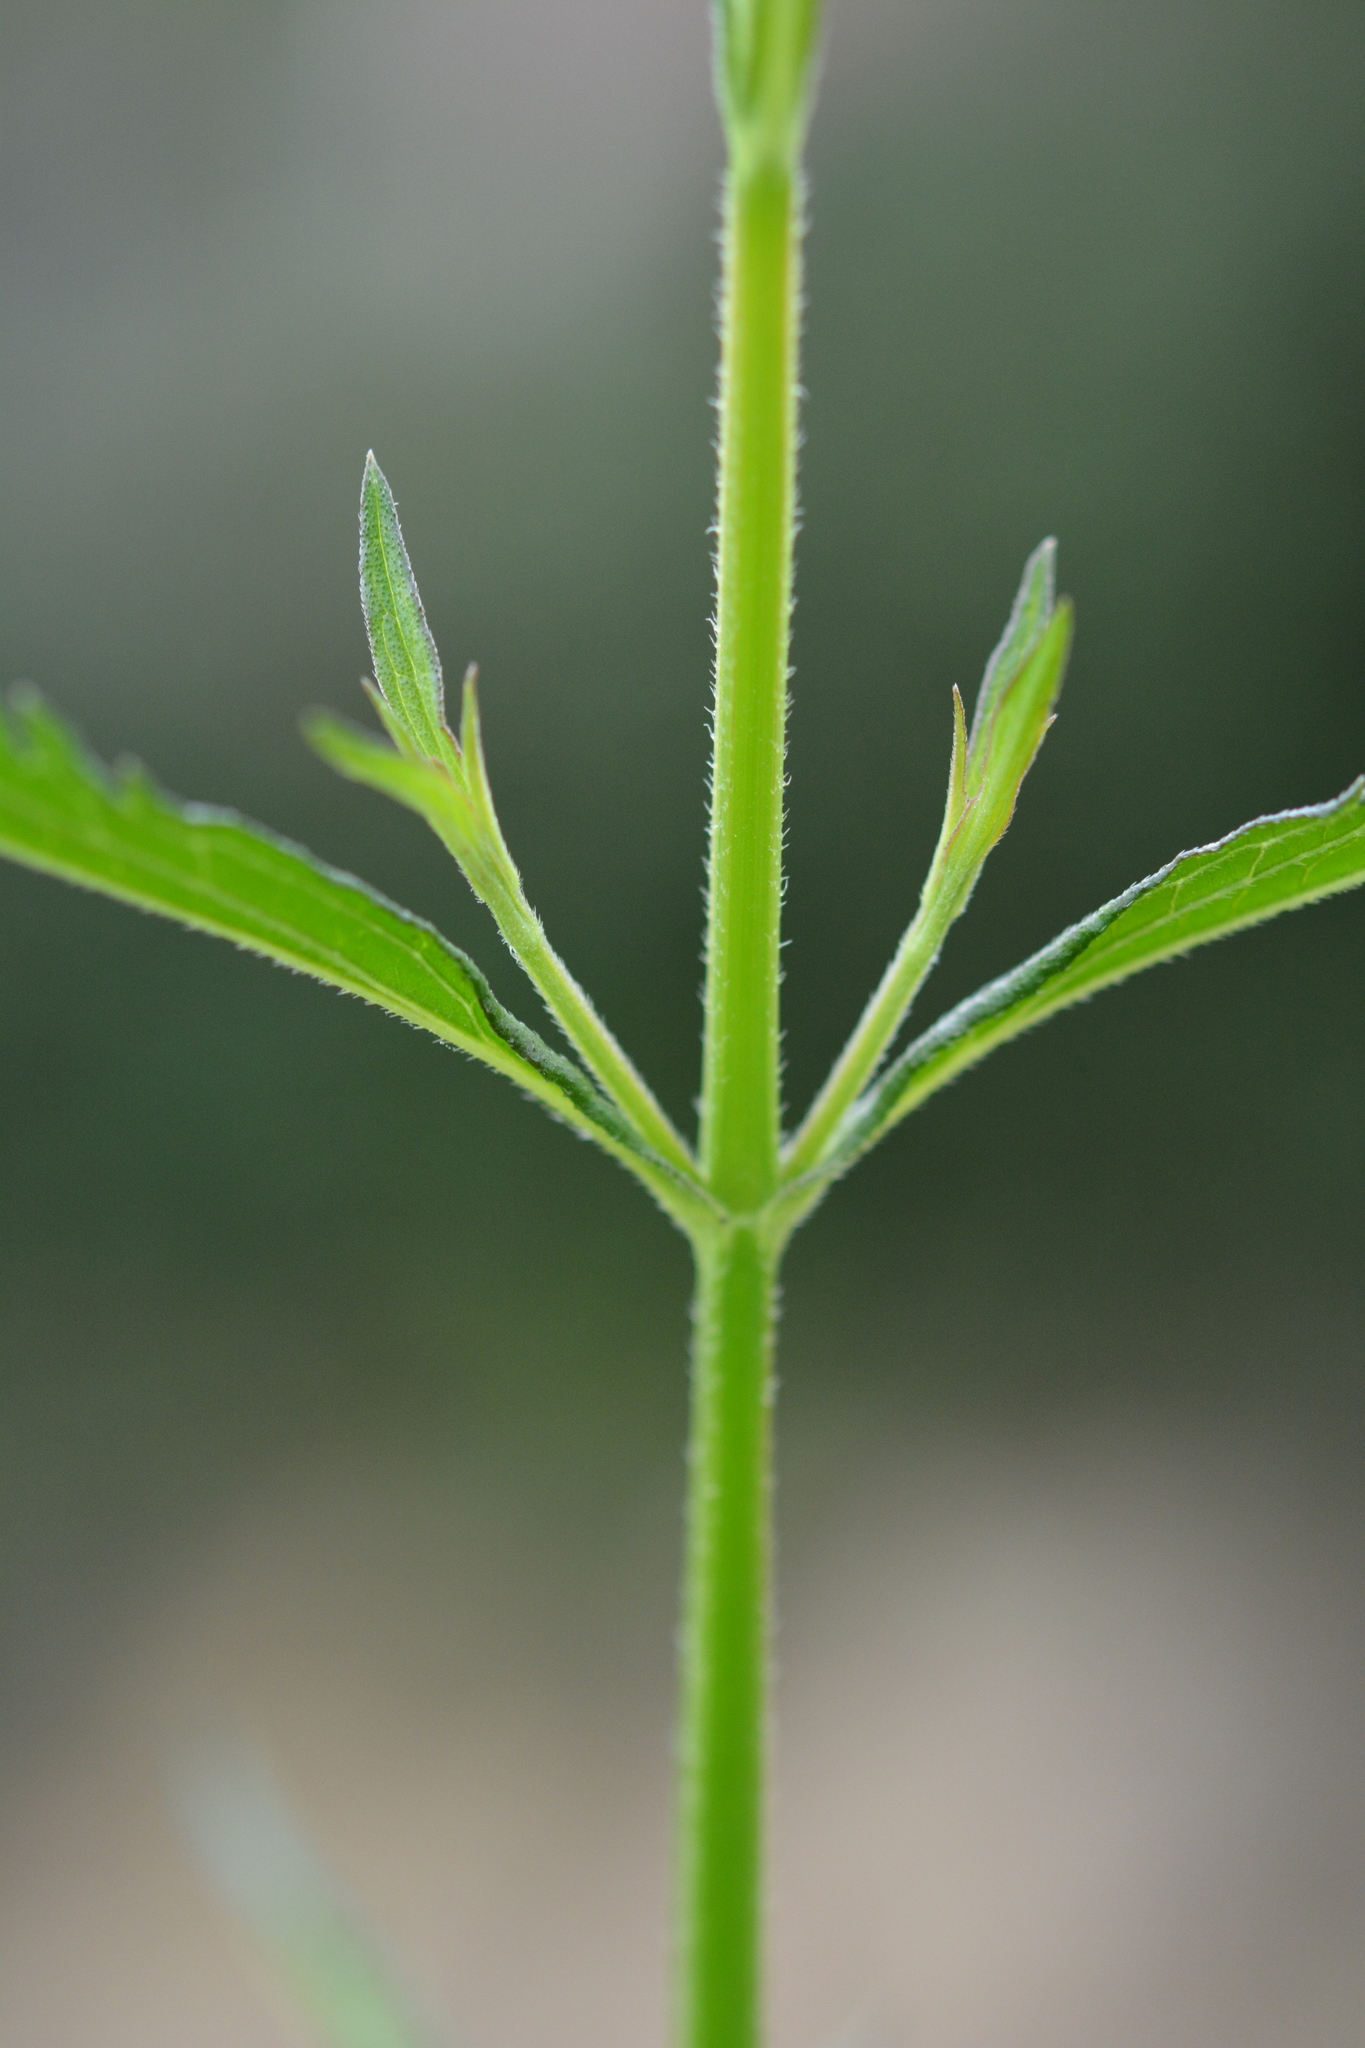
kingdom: Plantae
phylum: Tracheophyta
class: Magnoliopsida
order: Lamiales
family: Verbenaceae
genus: Verbena
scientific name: Verbena brasiliensis
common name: Brazilian vervain
